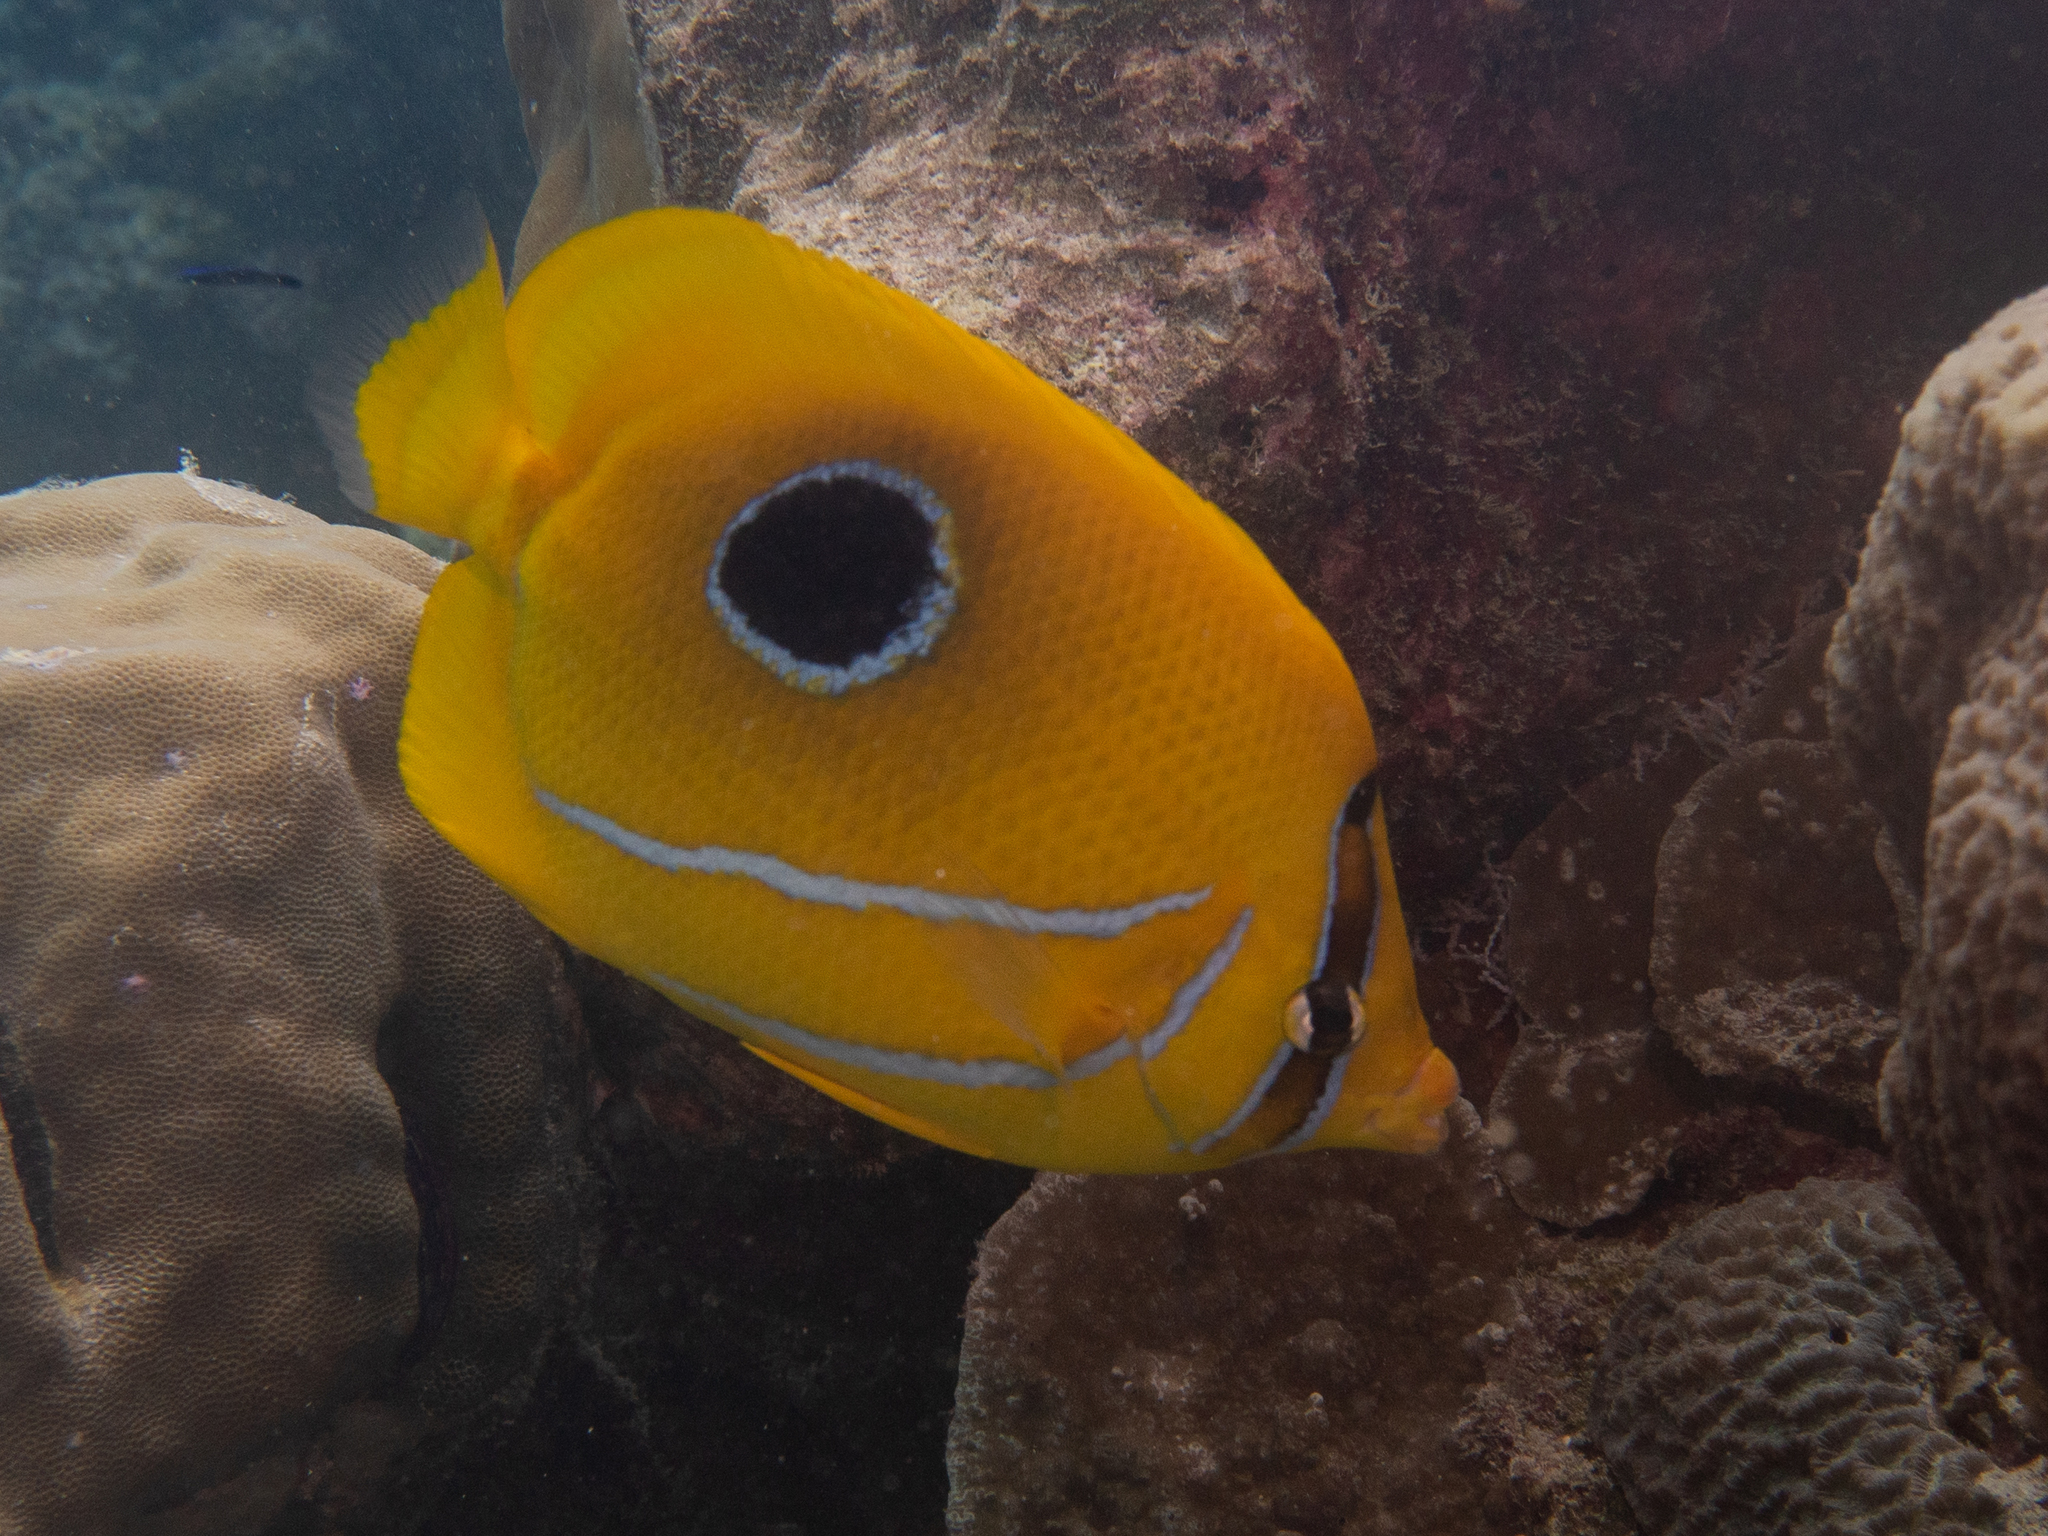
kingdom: Animalia
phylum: Chordata
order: Perciformes
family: Chaetodontidae
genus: Chaetodon
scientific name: Chaetodon bennetti
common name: Bennett's butterflyfish
